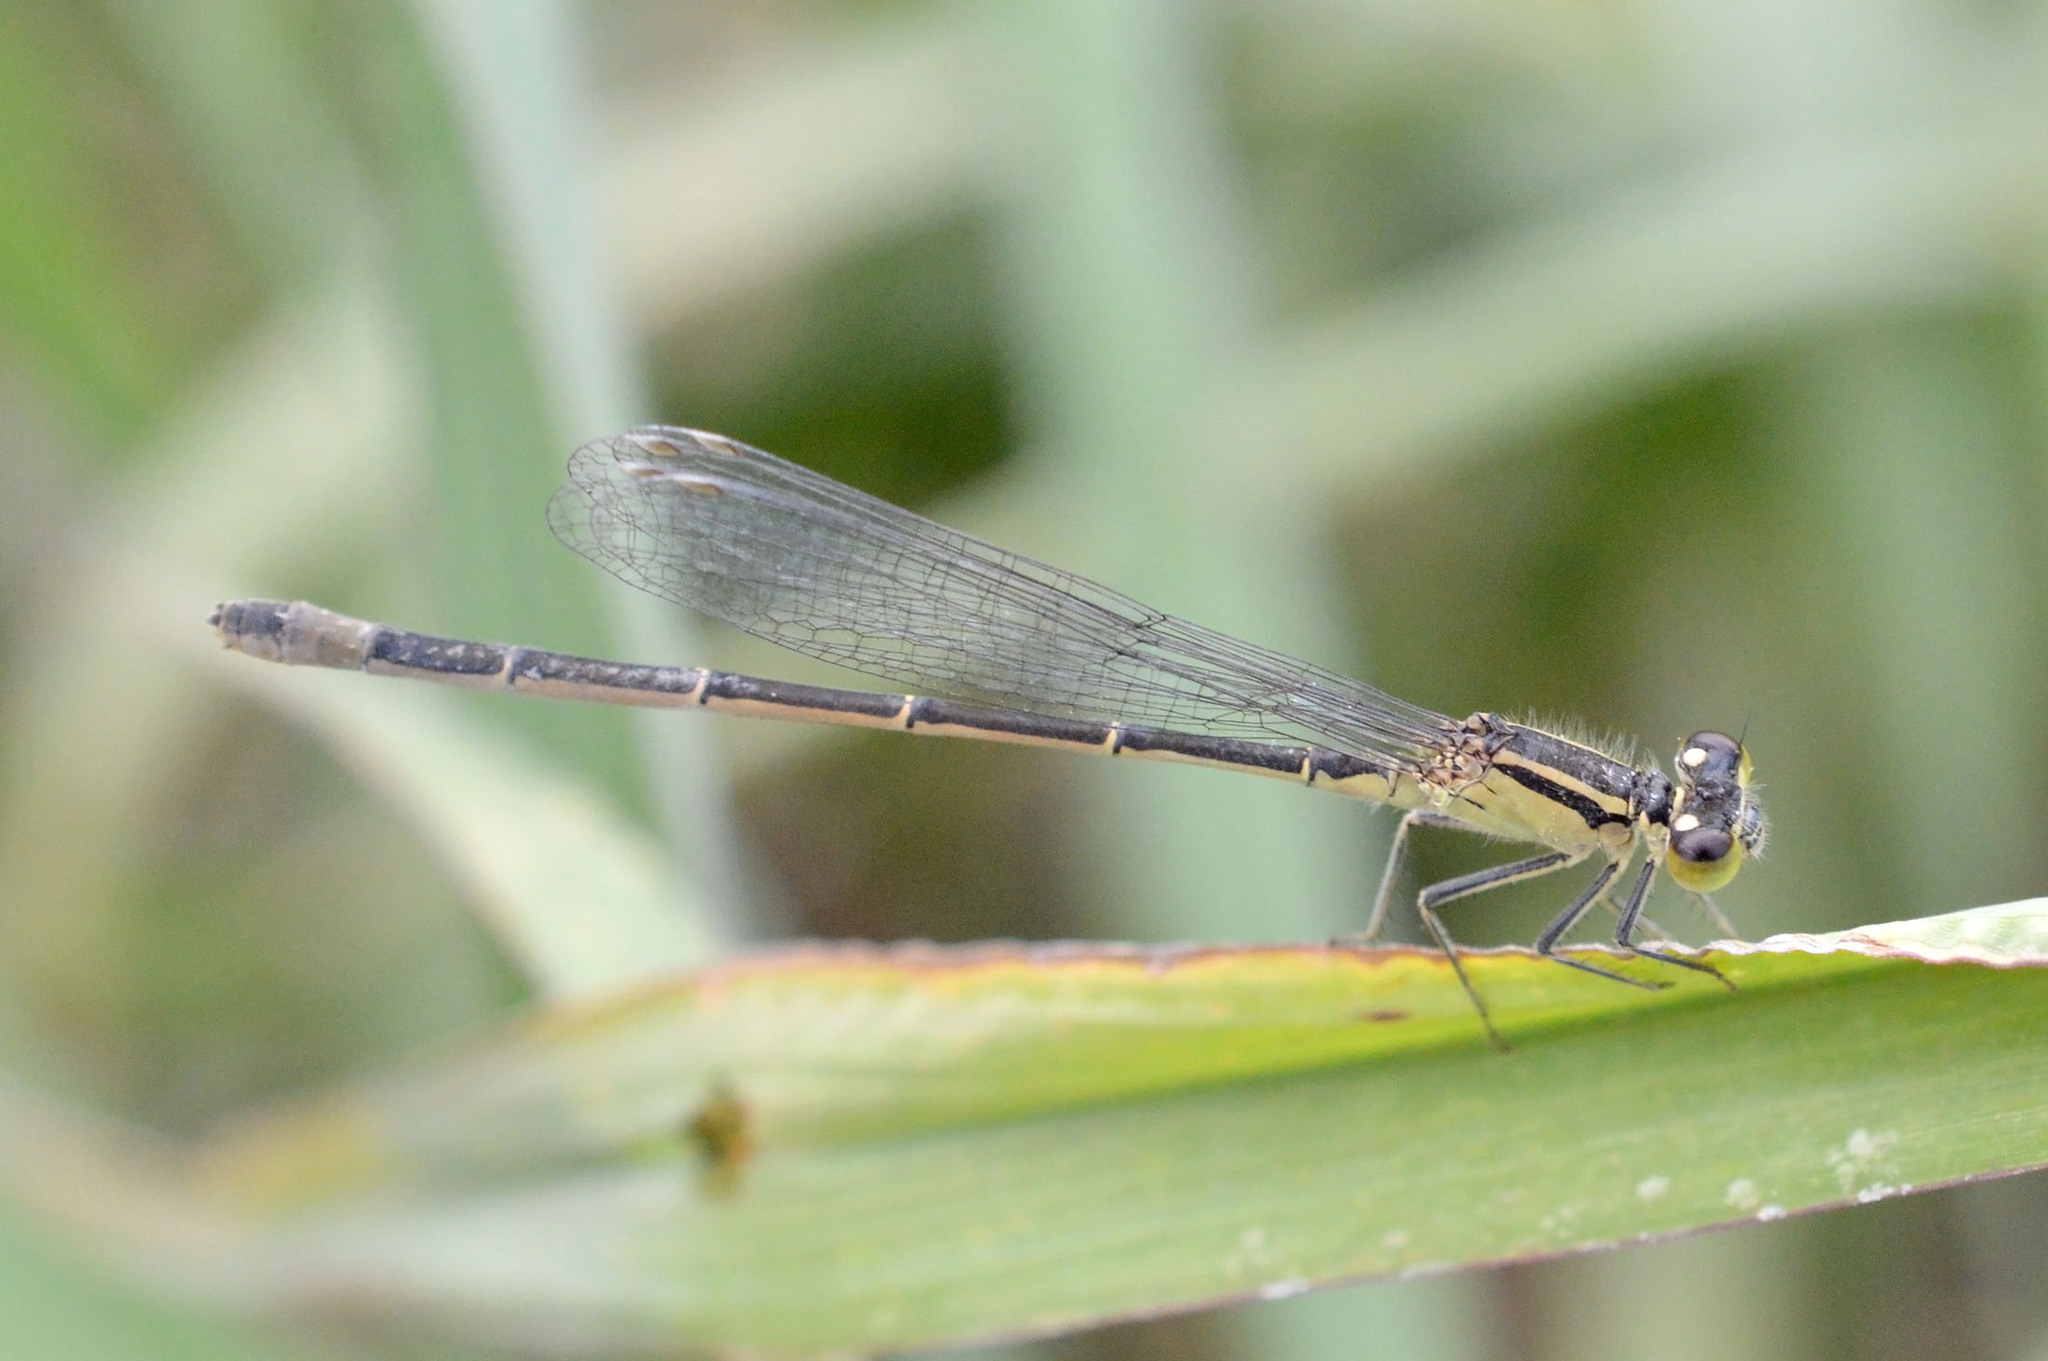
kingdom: Animalia
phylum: Arthropoda
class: Insecta
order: Odonata
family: Coenagrionidae
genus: Ischnura
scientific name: Ischnura elegans
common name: Blue-tailed damselfly
